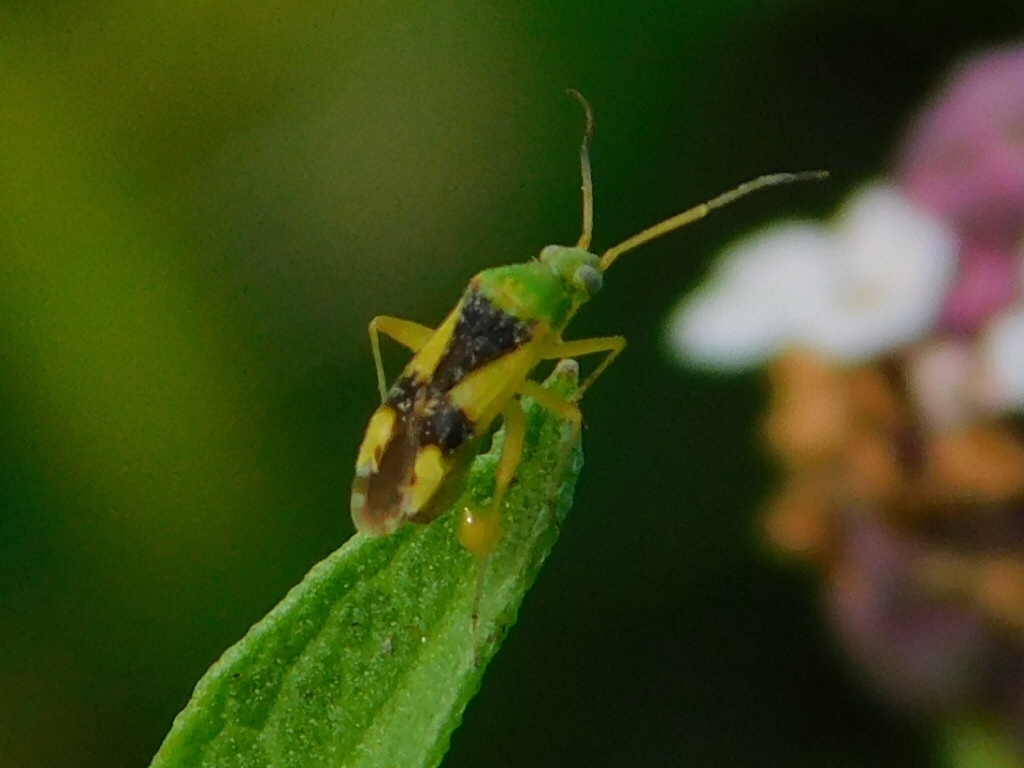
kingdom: Animalia
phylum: Arthropoda
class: Insecta
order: Hemiptera
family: Miridae
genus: Reuteroscopus
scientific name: Reuteroscopus ornatus
